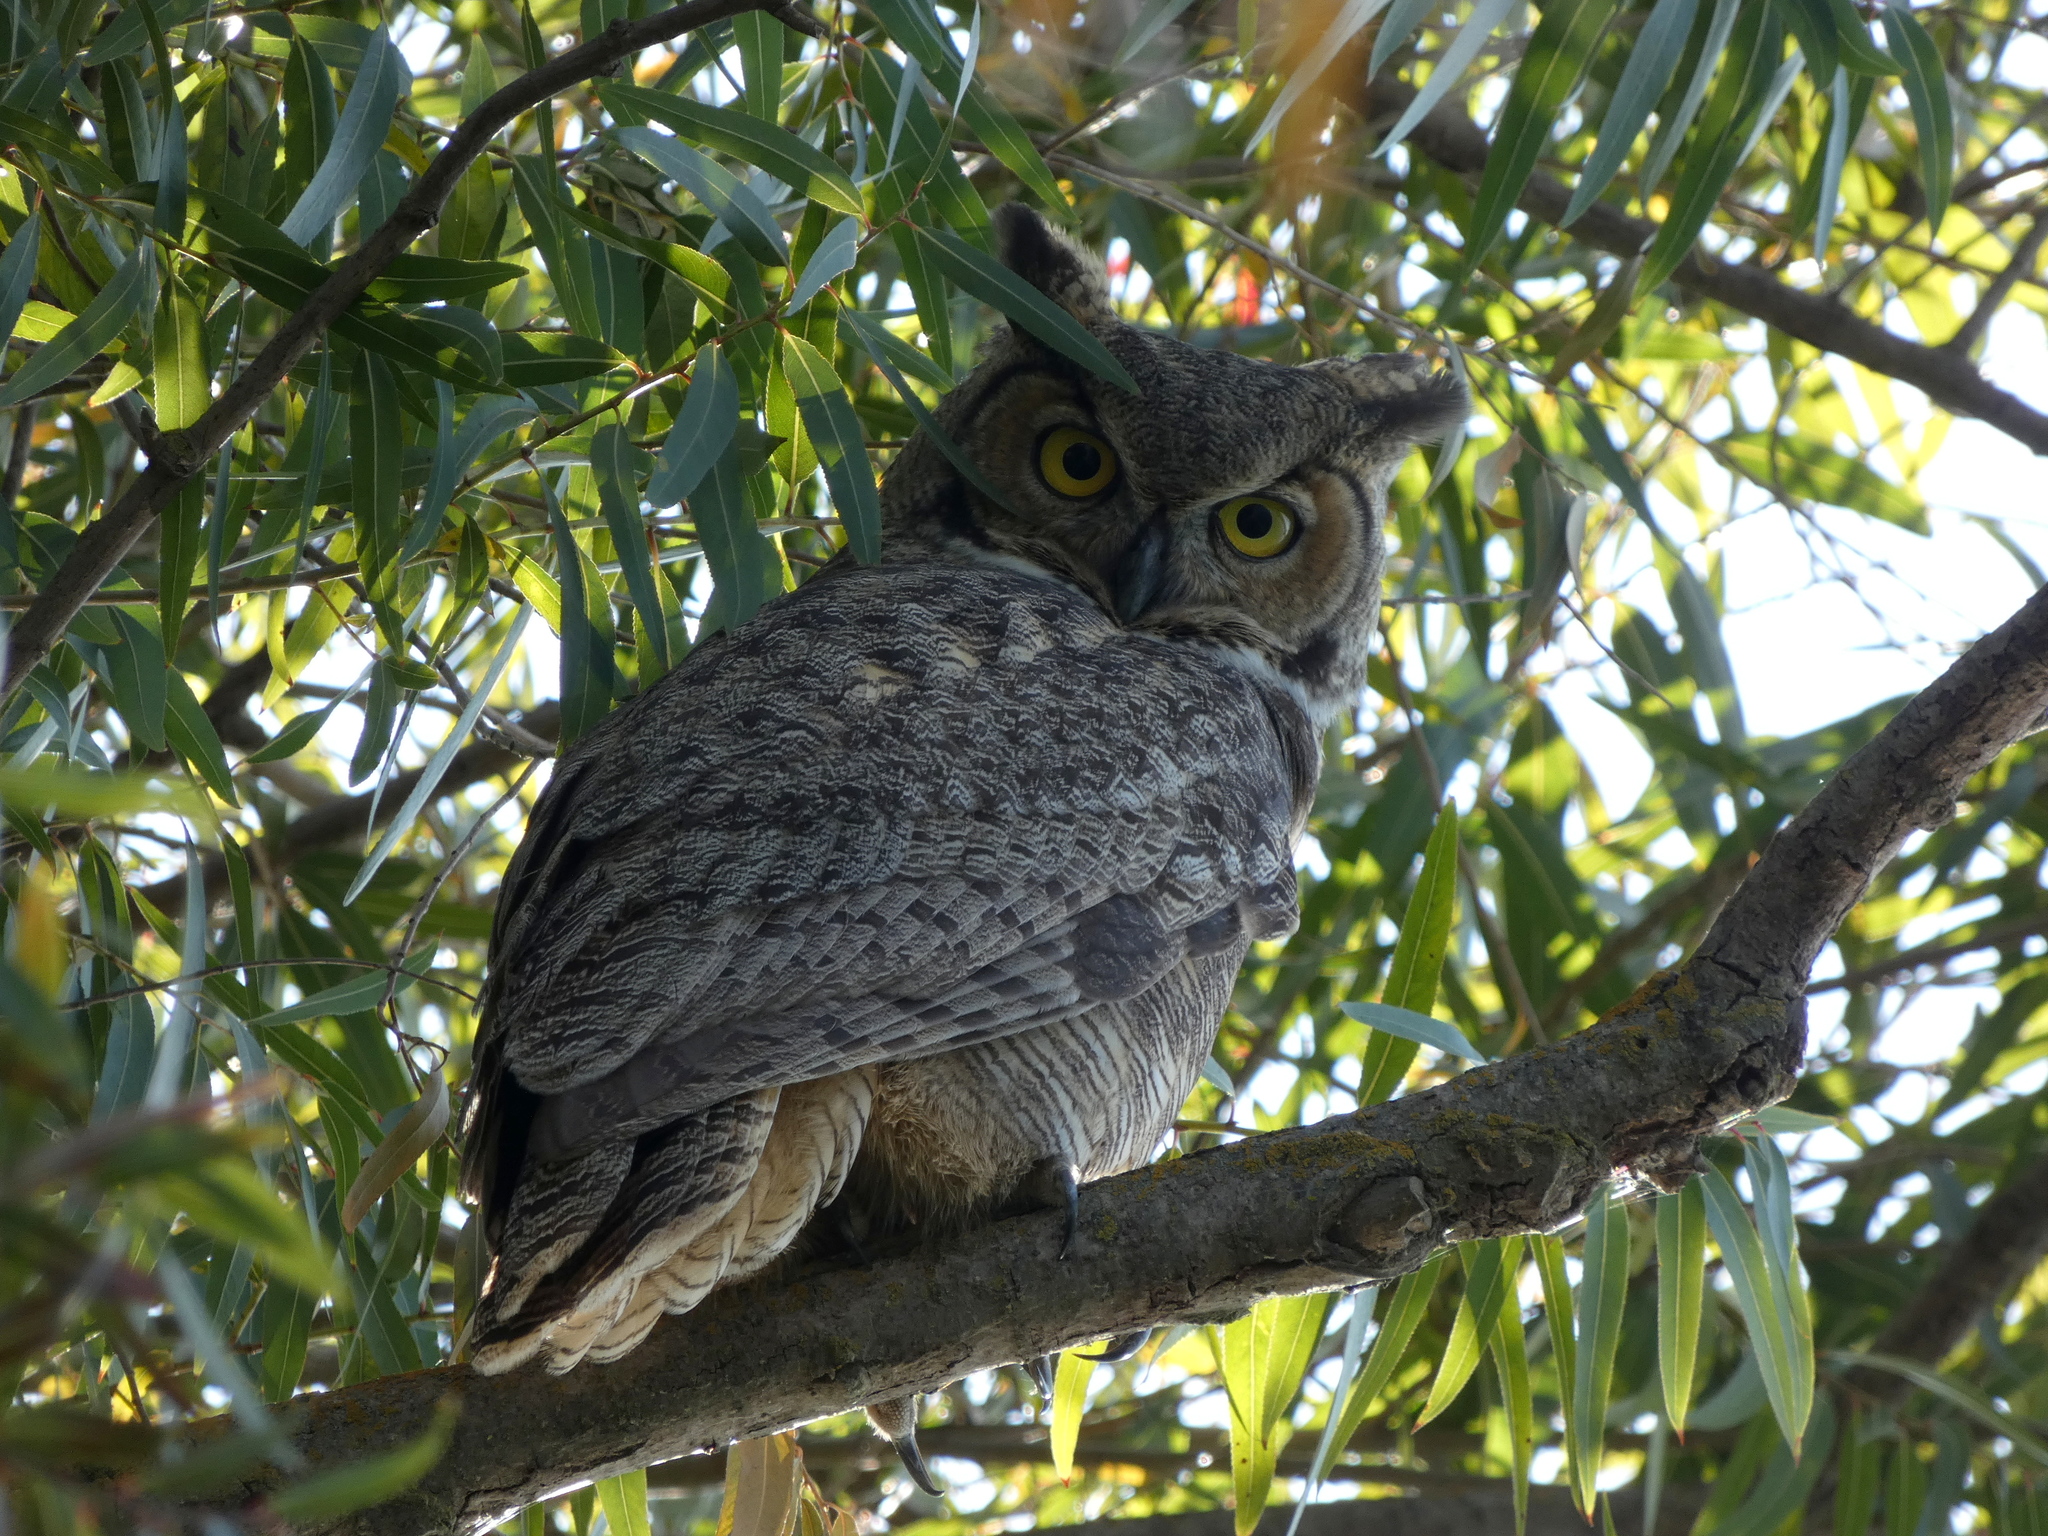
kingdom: Animalia
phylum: Chordata
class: Aves
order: Strigiformes
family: Strigidae
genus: Bubo
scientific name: Bubo virginianus
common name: Great horned owl
